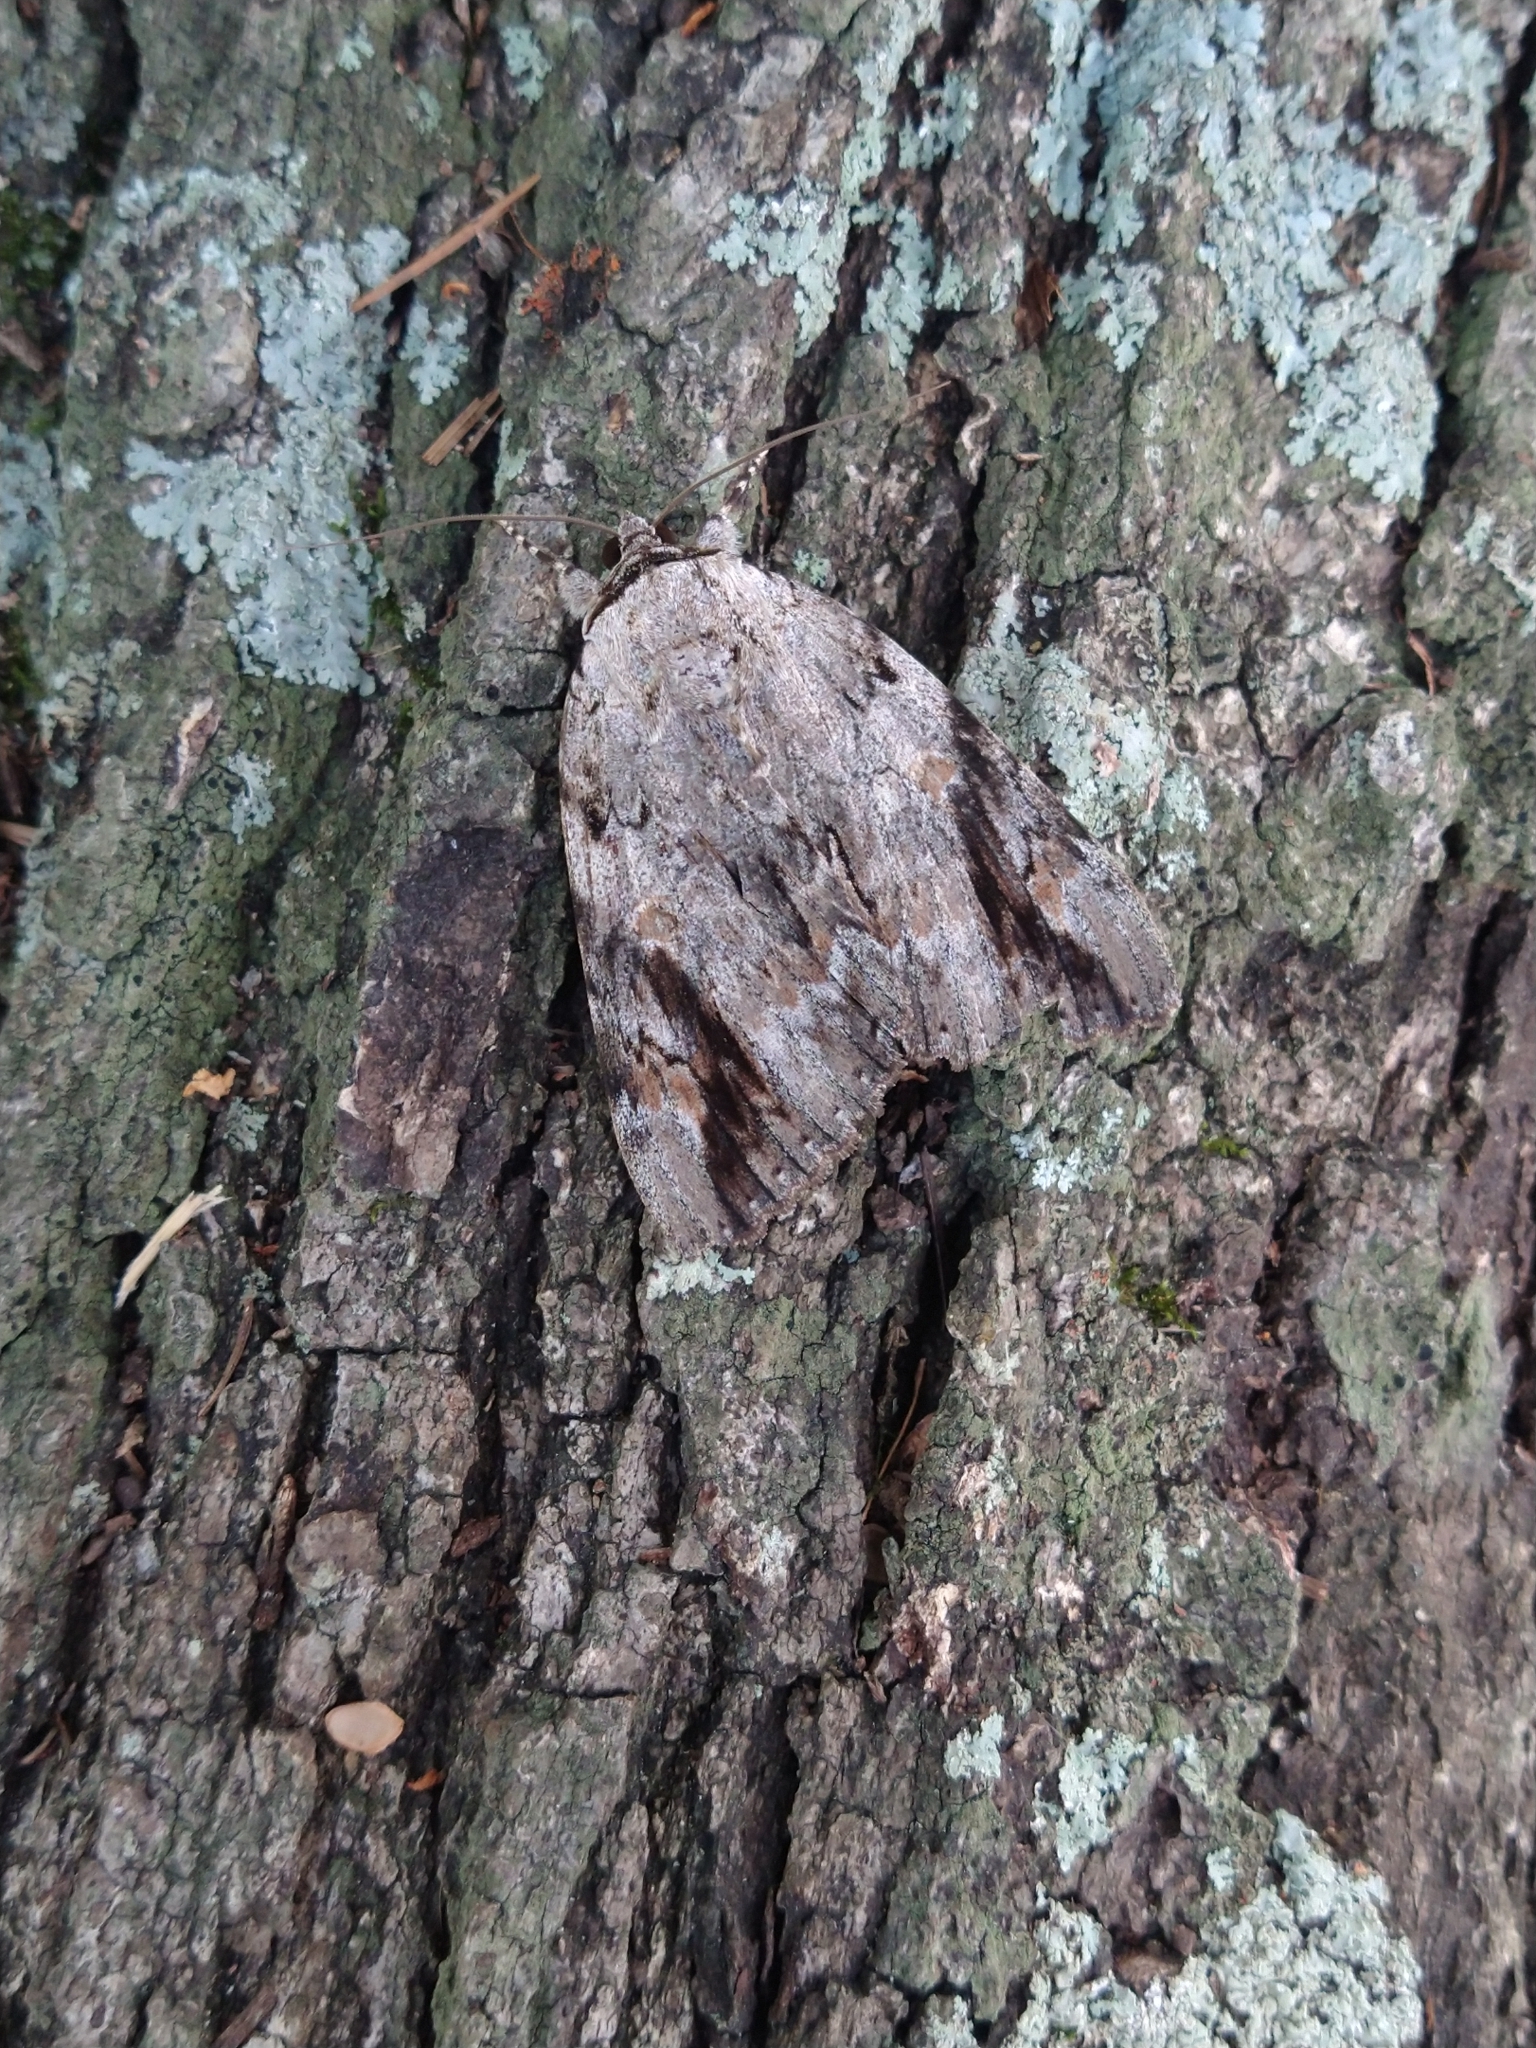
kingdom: Animalia
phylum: Arthropoda
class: Insecta
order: Lepidoptera
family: Erebidae
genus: Catocala
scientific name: Catocala maestosa
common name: Sad underwing
